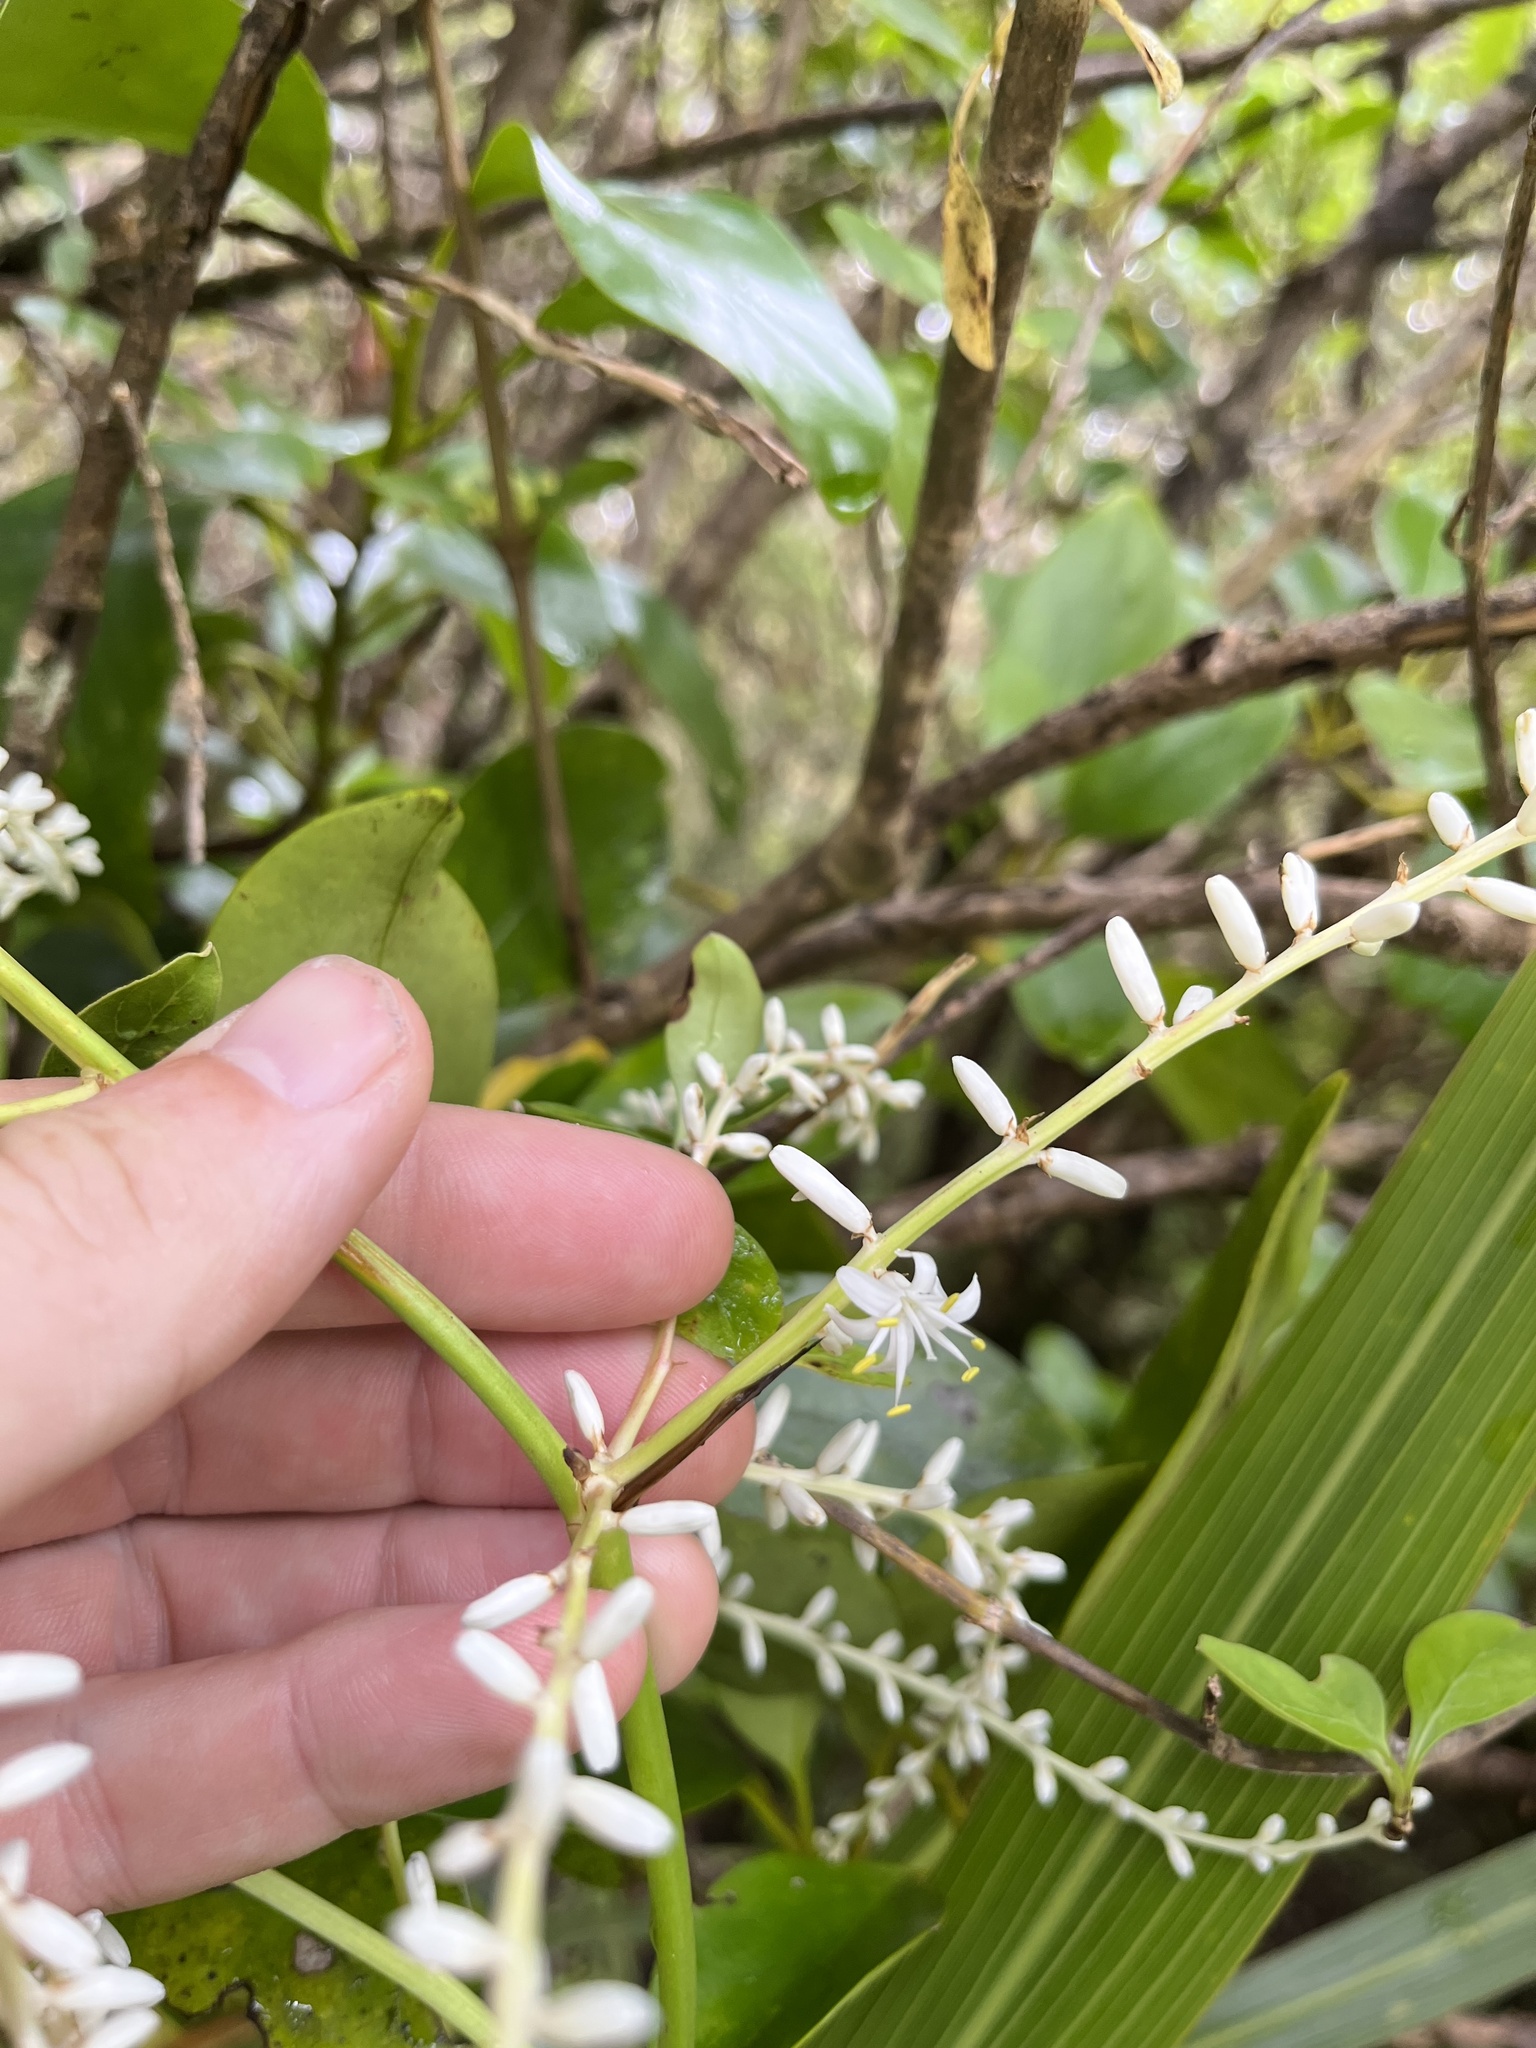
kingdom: Plantae
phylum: Tracheophyta
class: Liliopsida
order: Asparagales
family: Asparagaceae
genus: Cordyline
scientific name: Cordyline banksii
